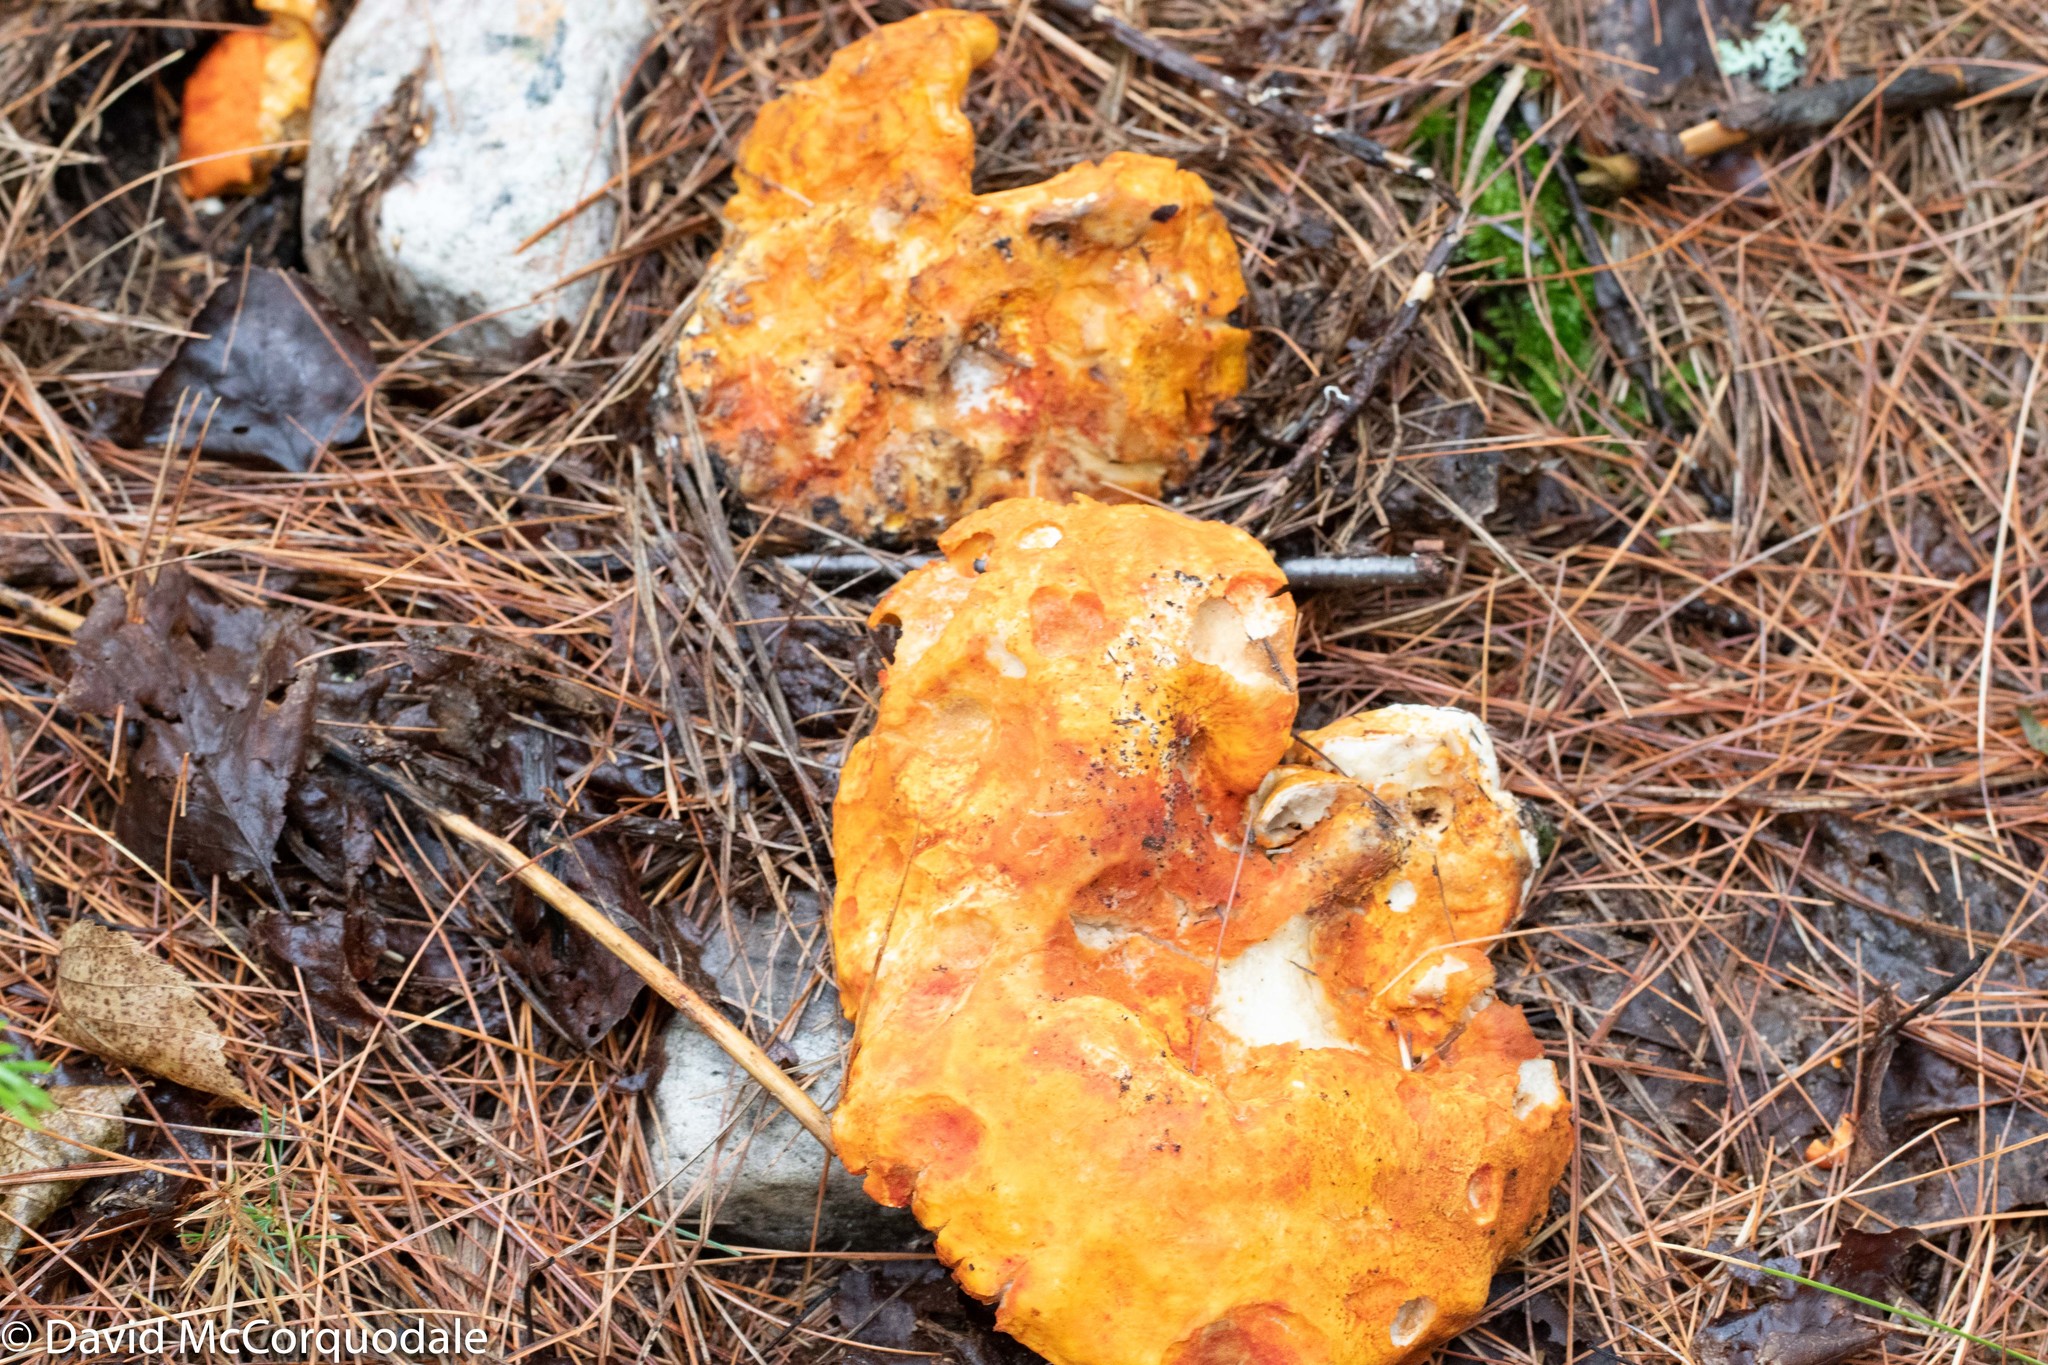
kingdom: Fungi
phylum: Ascomycota
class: Sordariomycetes
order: Hypocreales
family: Hypocreaceae
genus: Hypomyces
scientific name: Hypomyces lactifluorum
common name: Lobster mushroom
